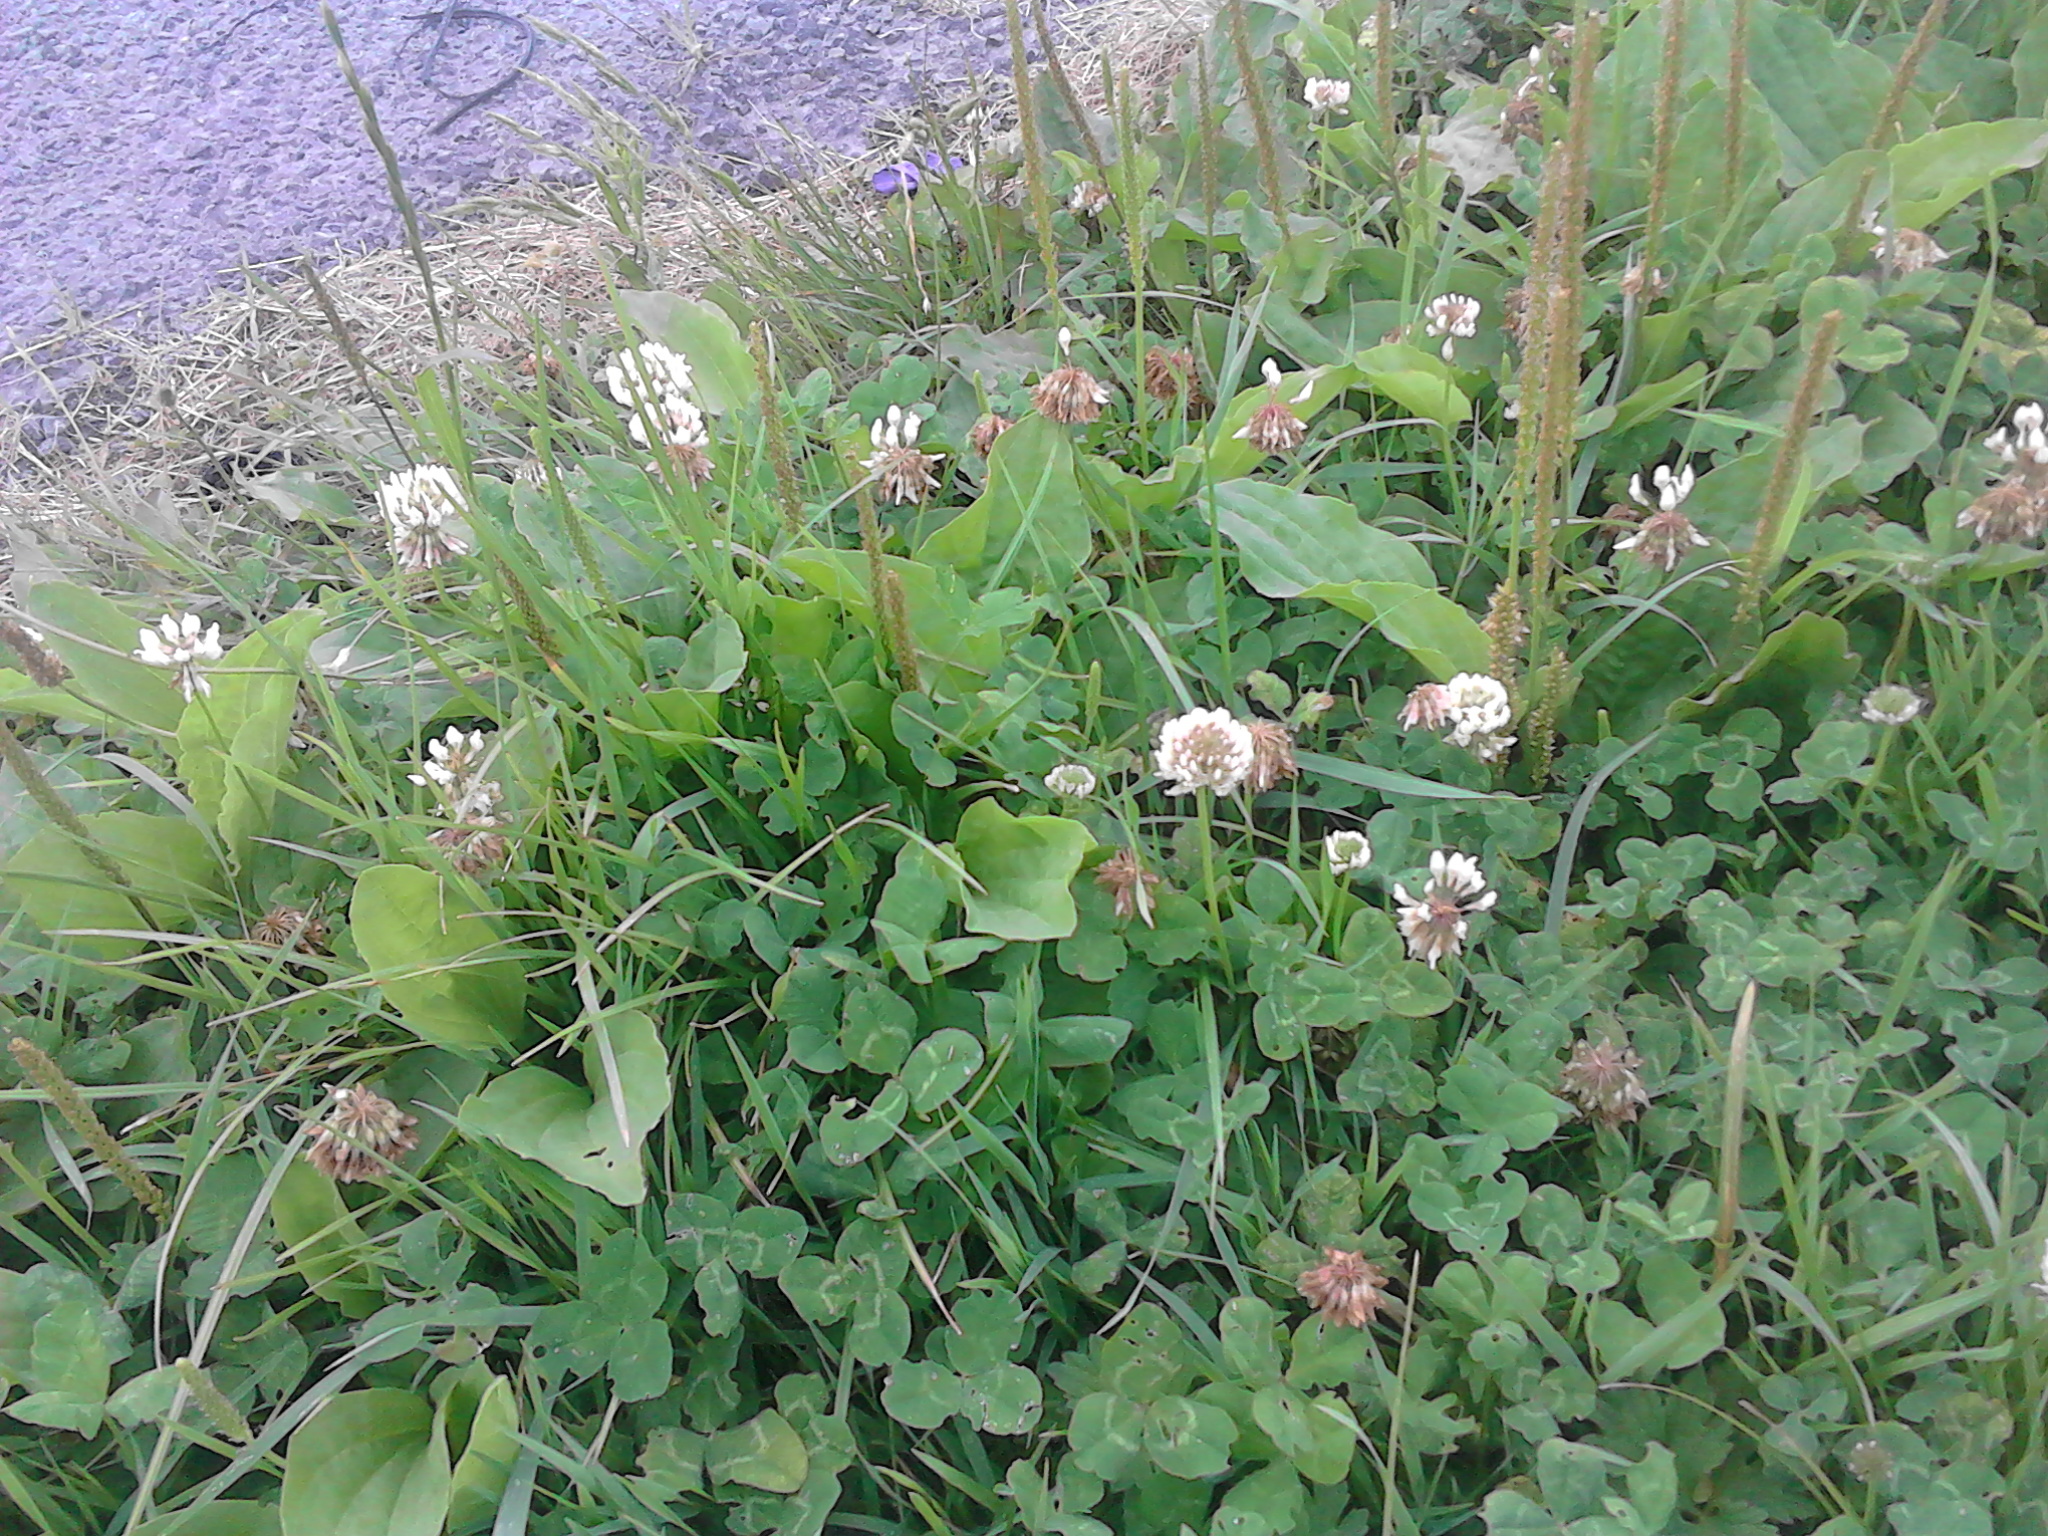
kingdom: Plantae
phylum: Tracheophyta
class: Magnoliopsida
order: Fabales
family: Fabaceae
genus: Trifolium
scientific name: Trifolium repens
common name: White clover
